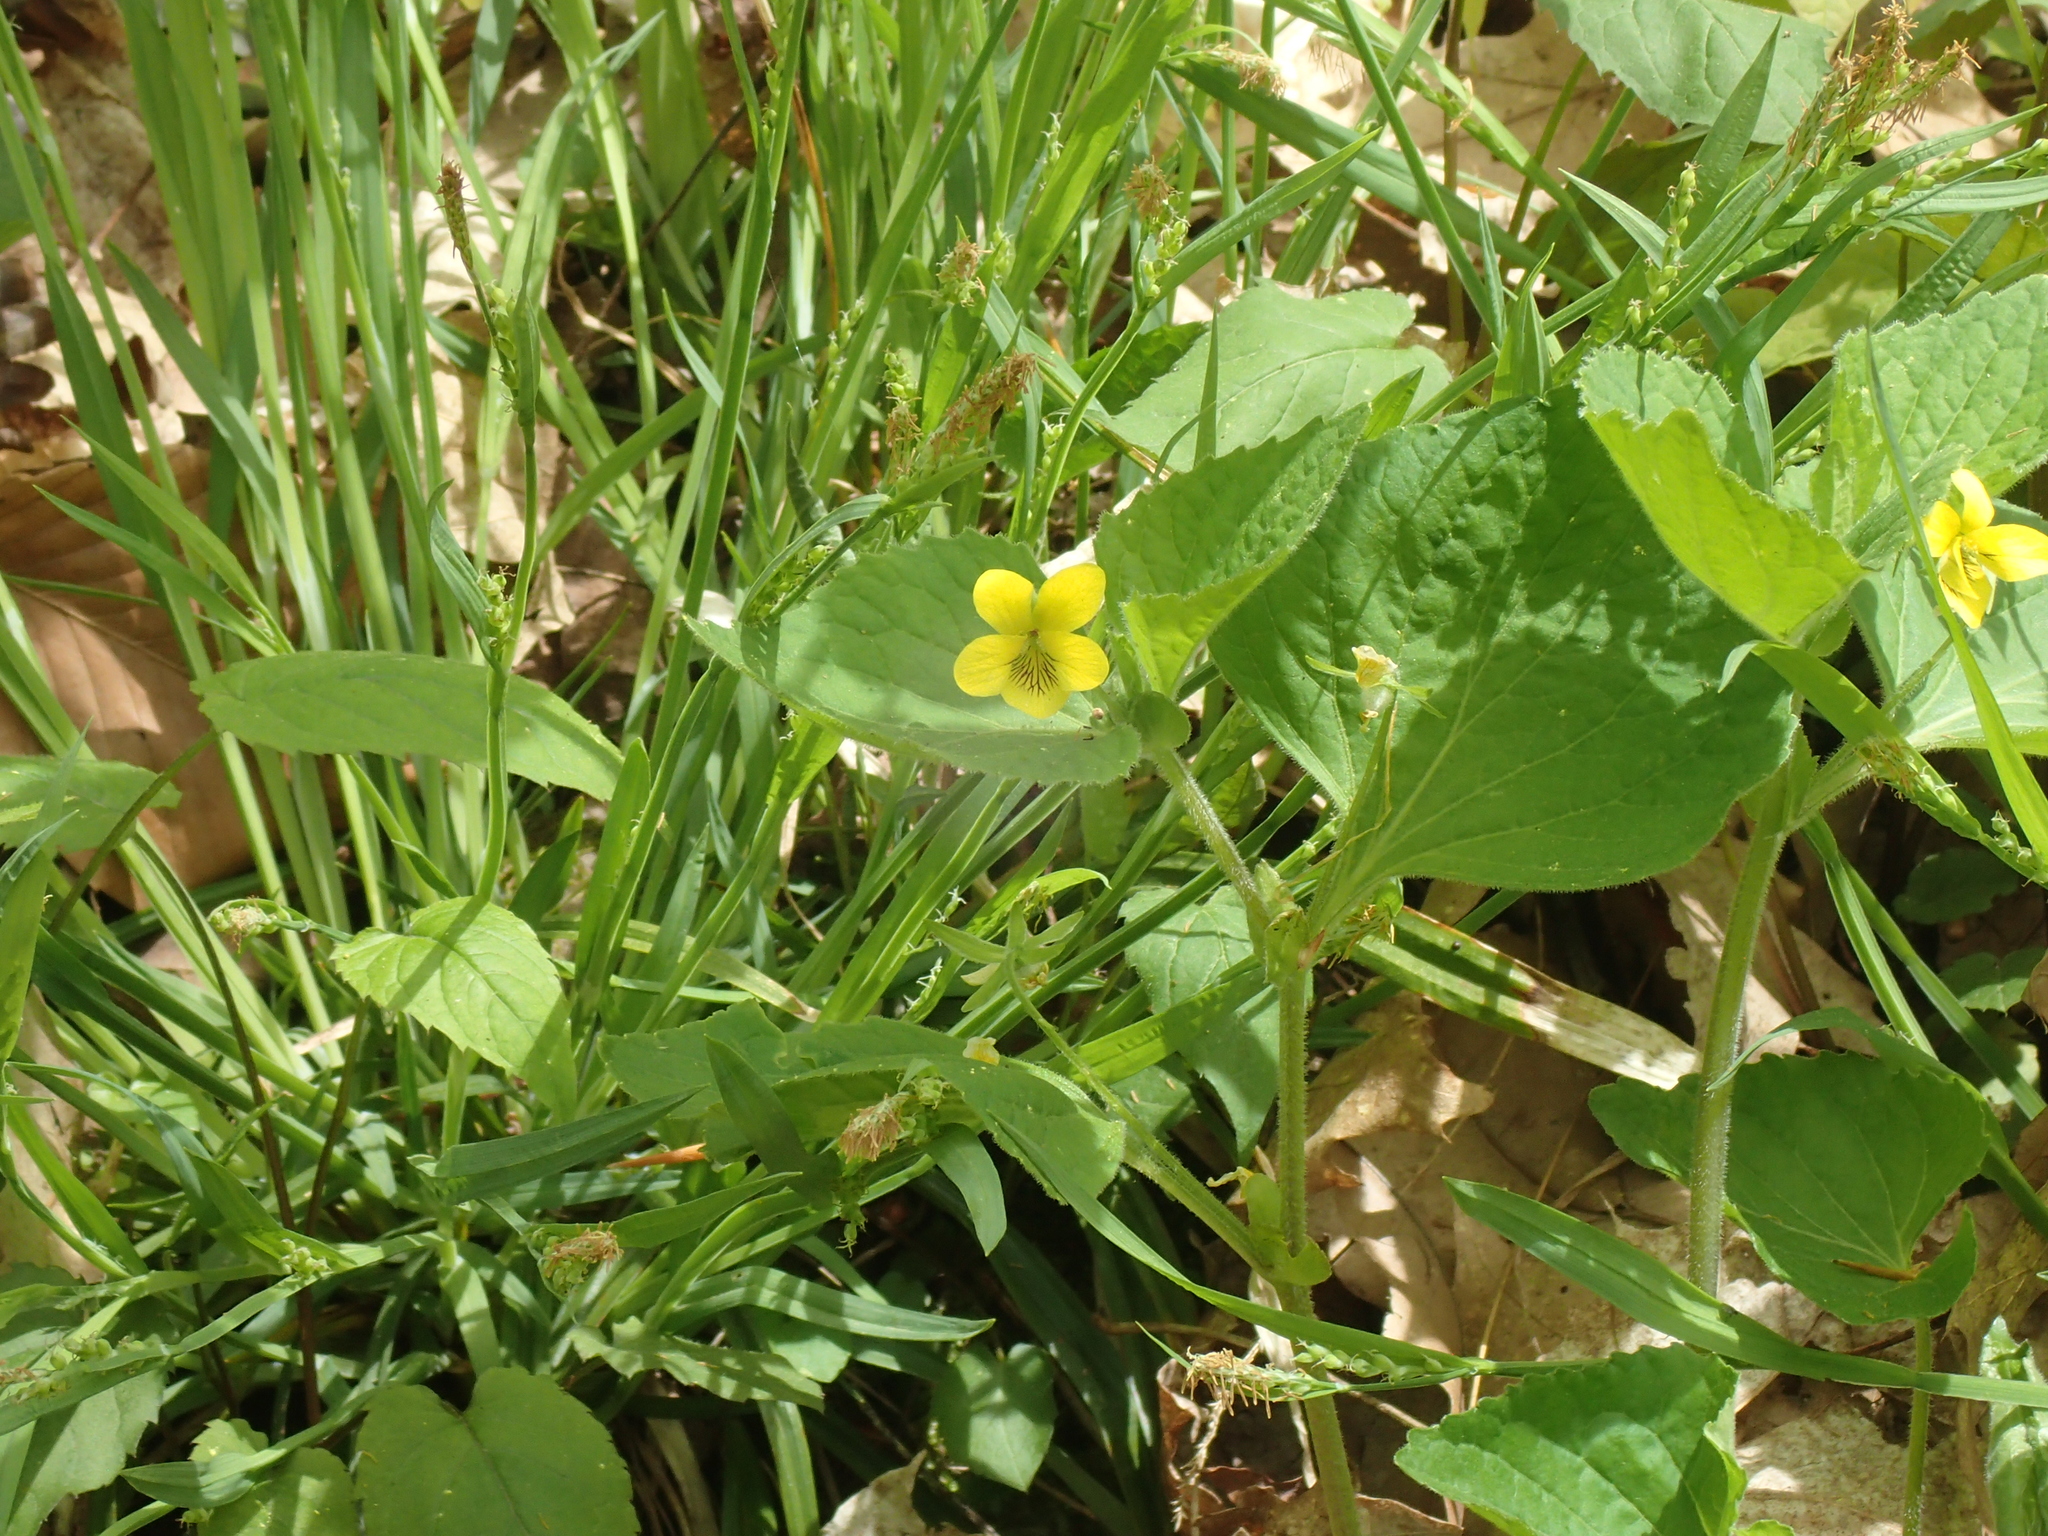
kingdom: Plantae
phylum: Tracheophyta
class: Magnoliopsida
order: Malpighiales
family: Violaceae
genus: Viola
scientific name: Viola pubescens
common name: Yellow forest violet
